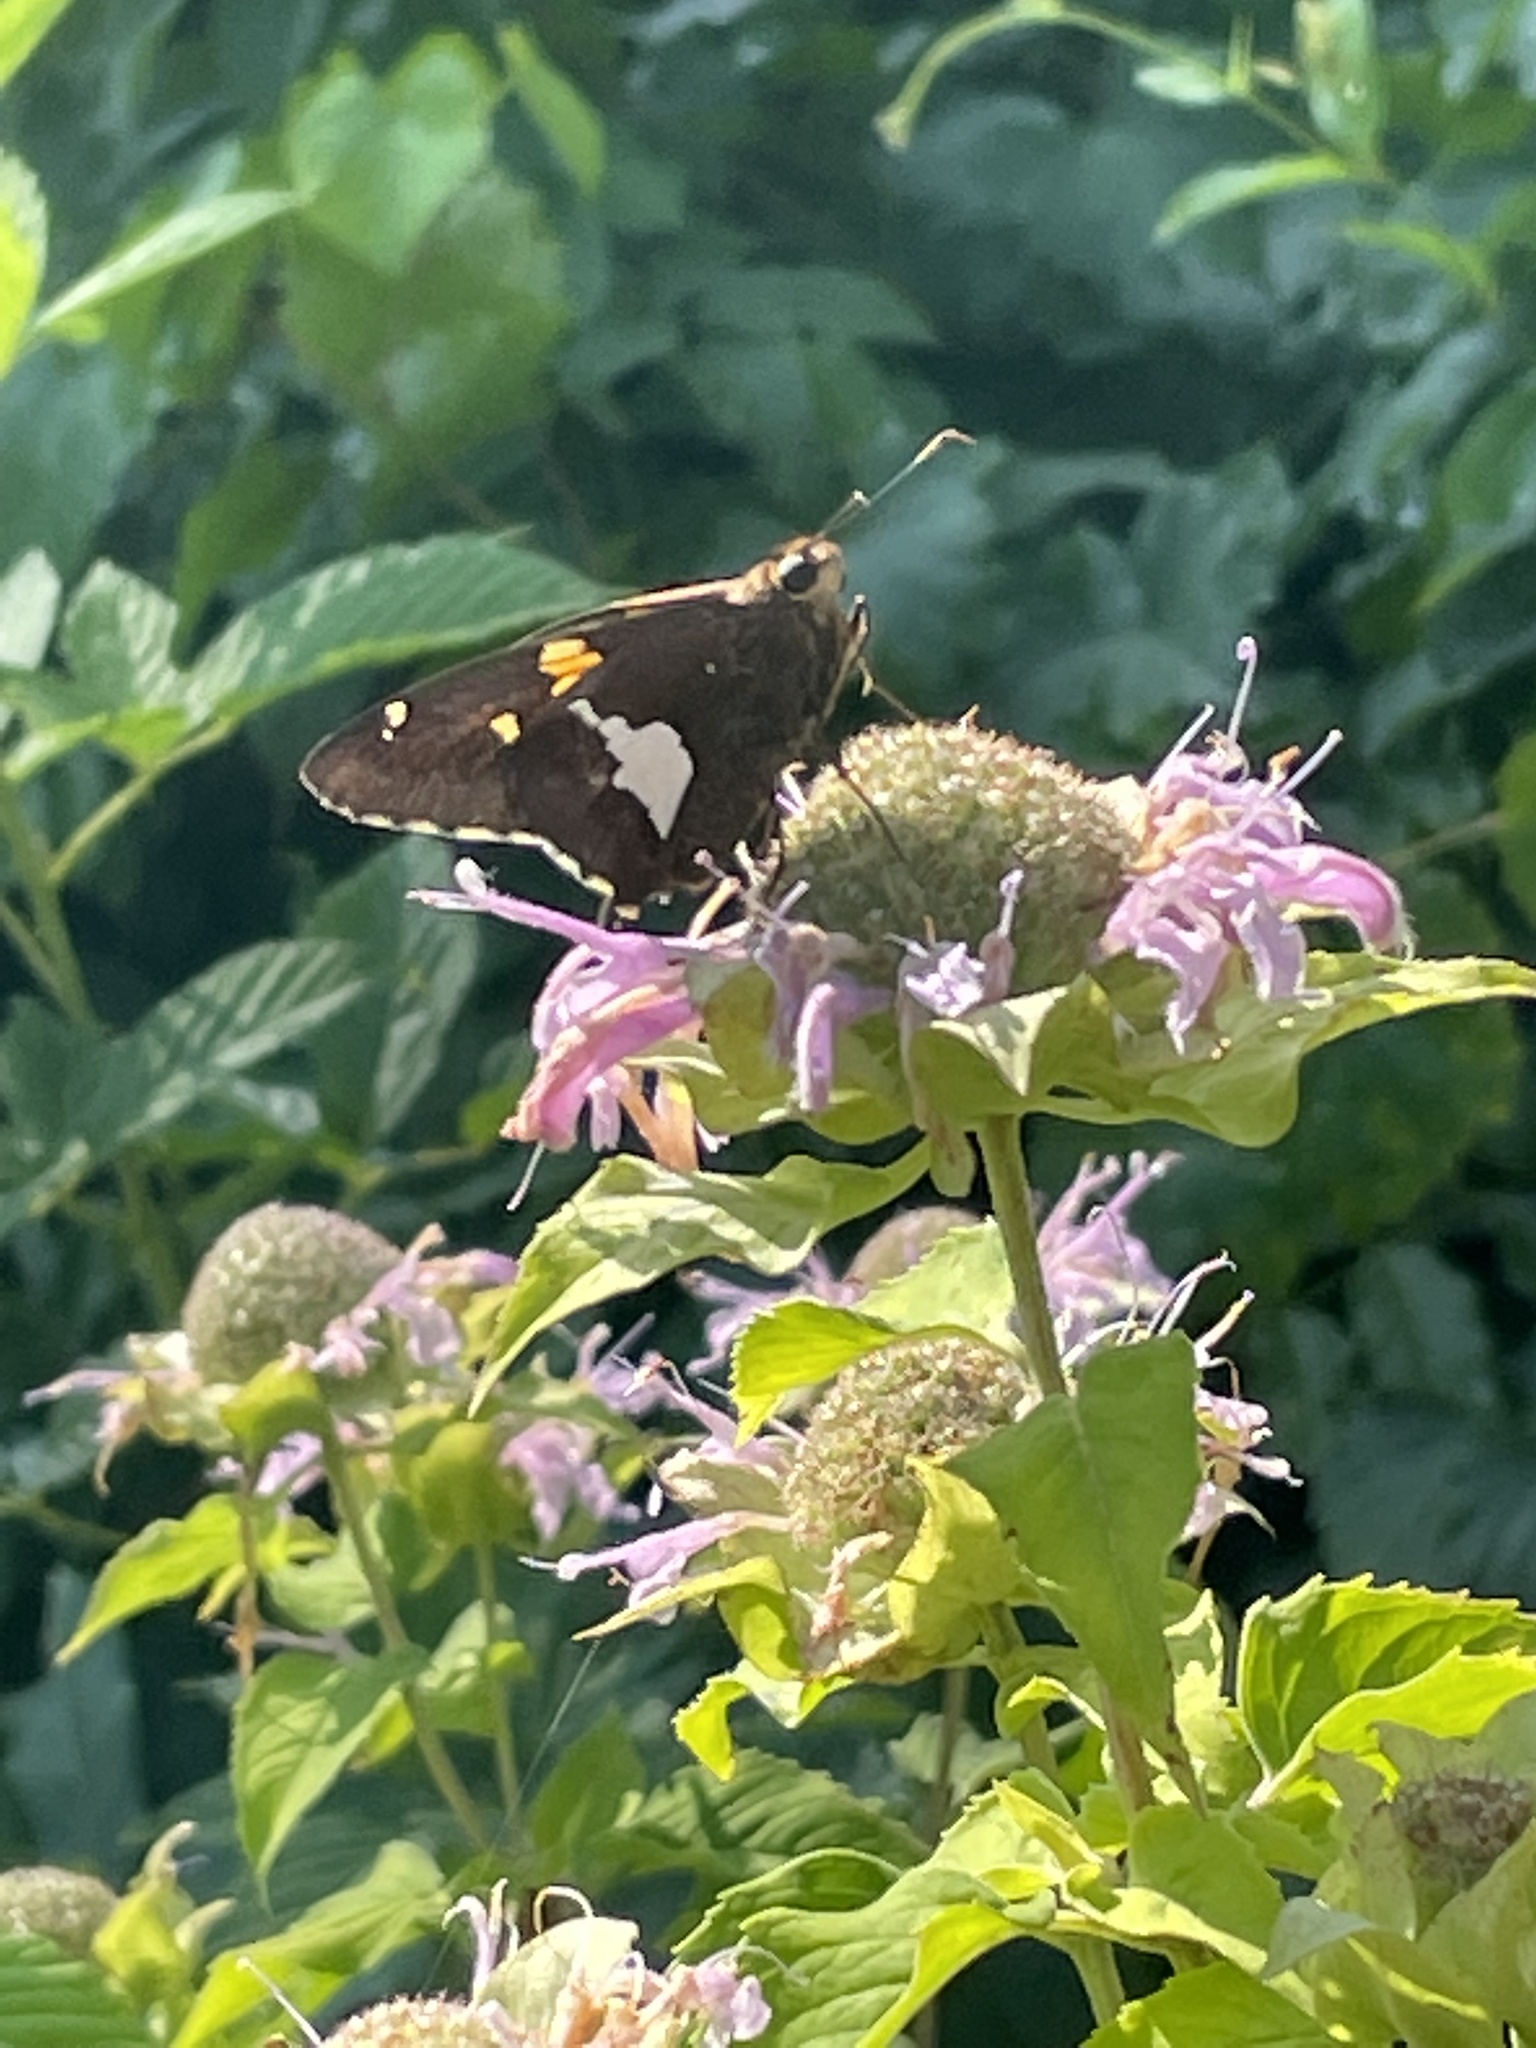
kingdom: Animalia
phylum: Arthropoda
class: Insecta
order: Lepidoptera
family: Hesperiidae
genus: Epargyreus
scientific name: Epargyreus clarus
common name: Silver-spotted skipper
